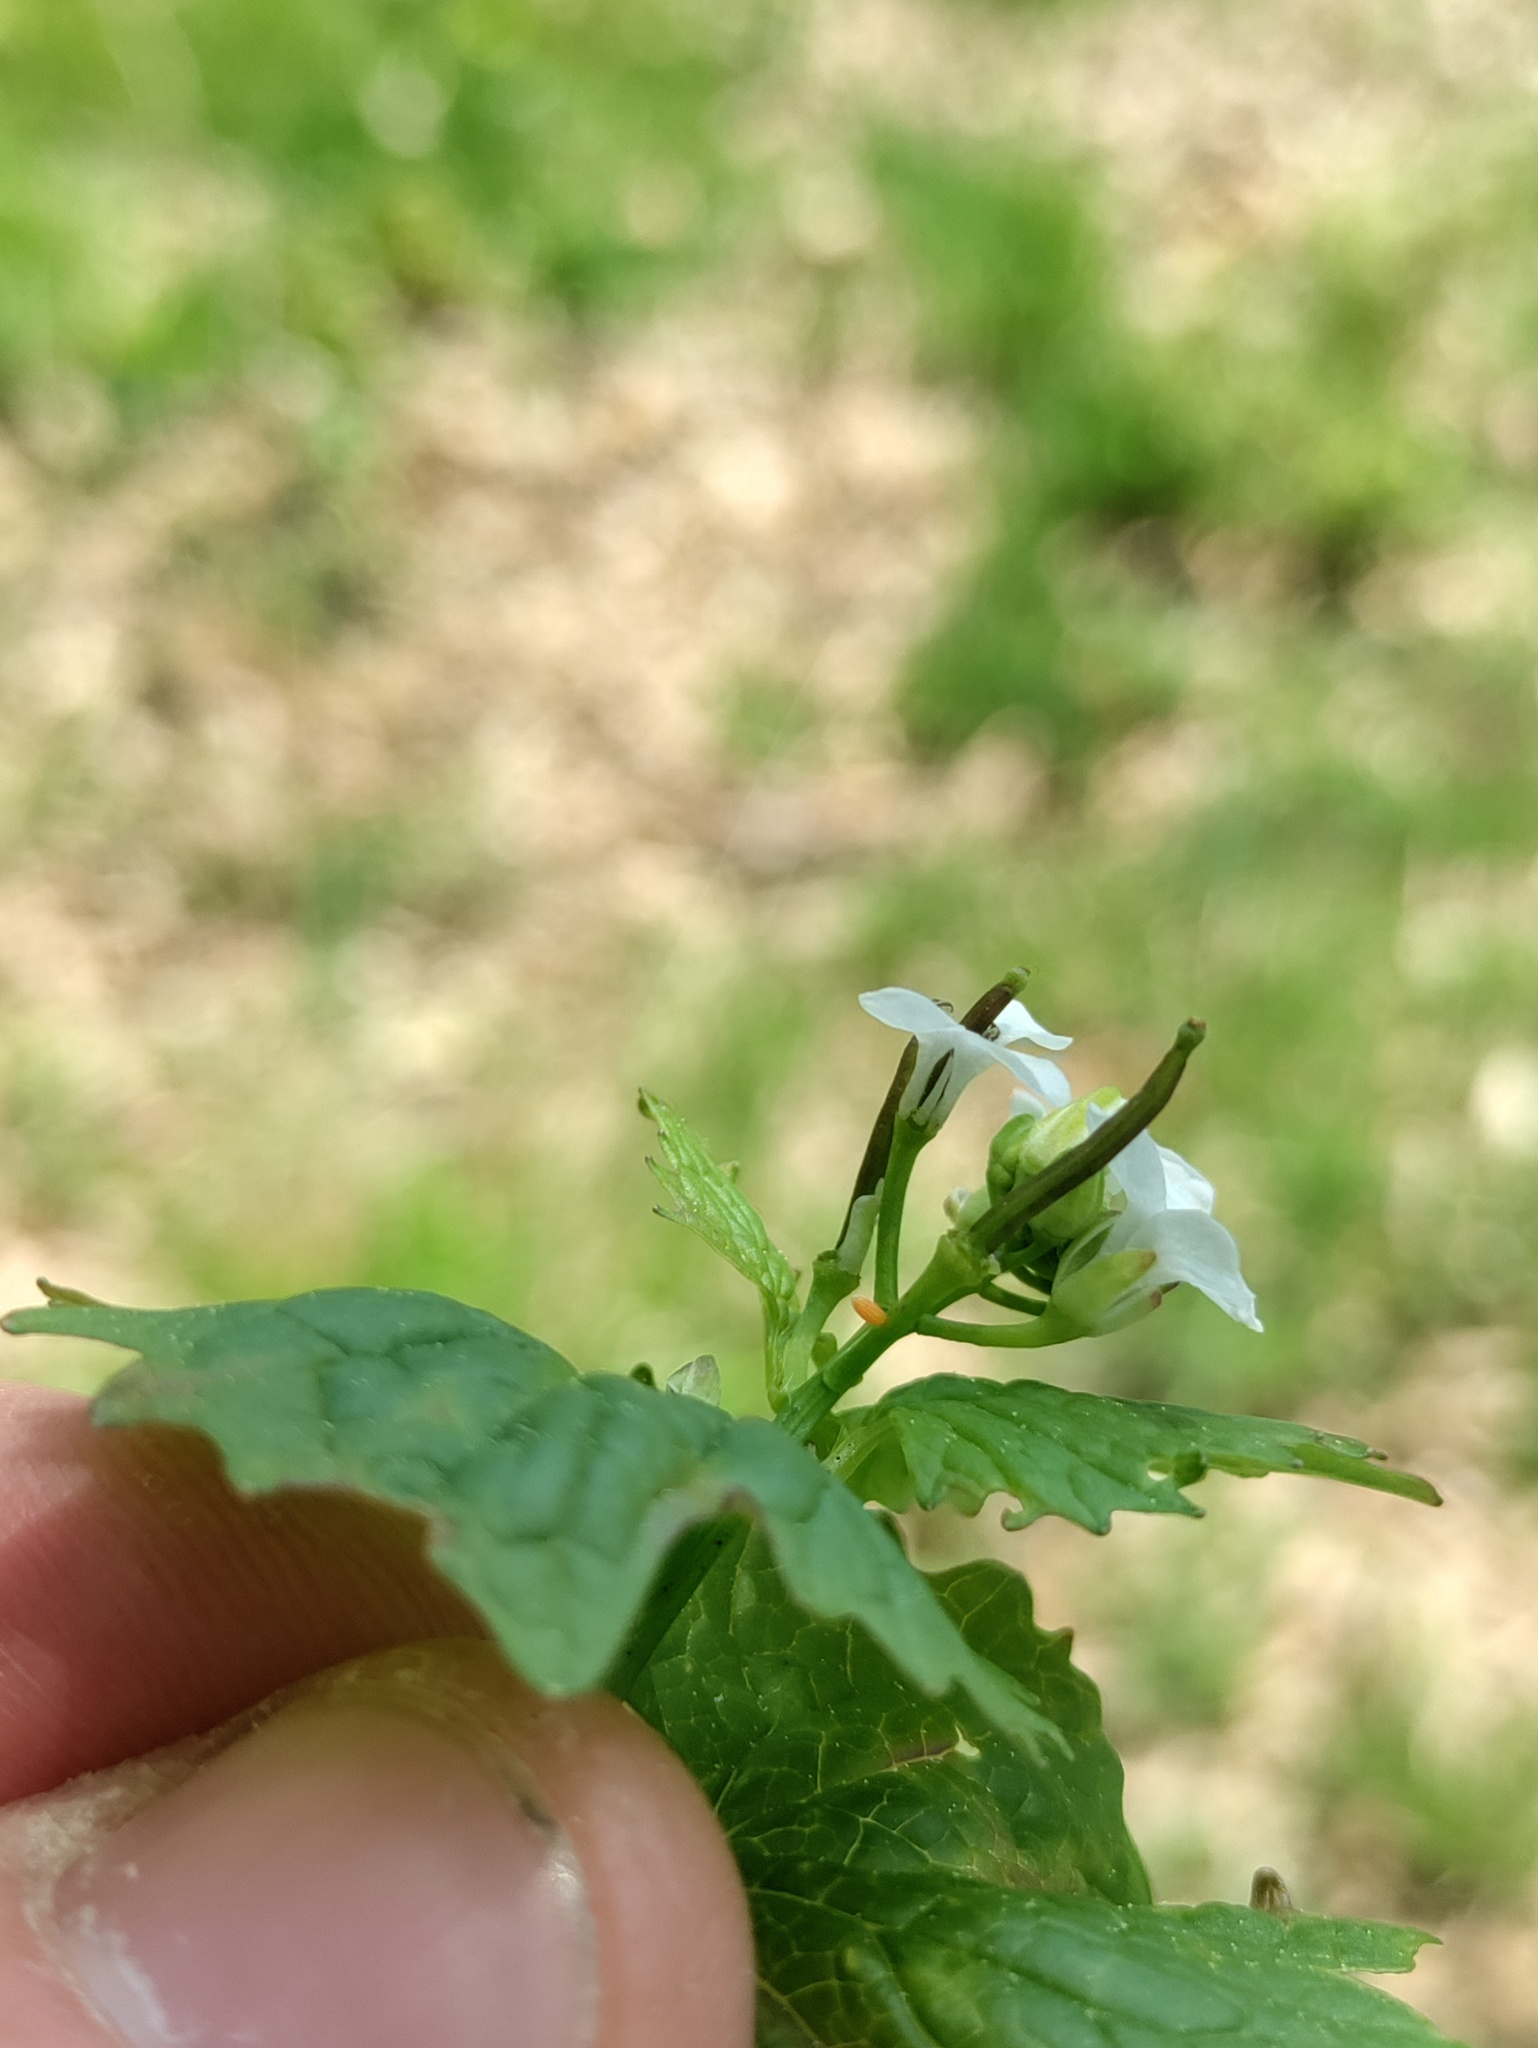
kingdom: Animalia
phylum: Arthropoda
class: Insecta
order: Lepidoptera
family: Pieridae
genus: Anthocharis
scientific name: Anthocharis cardamines
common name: Orange-tip
